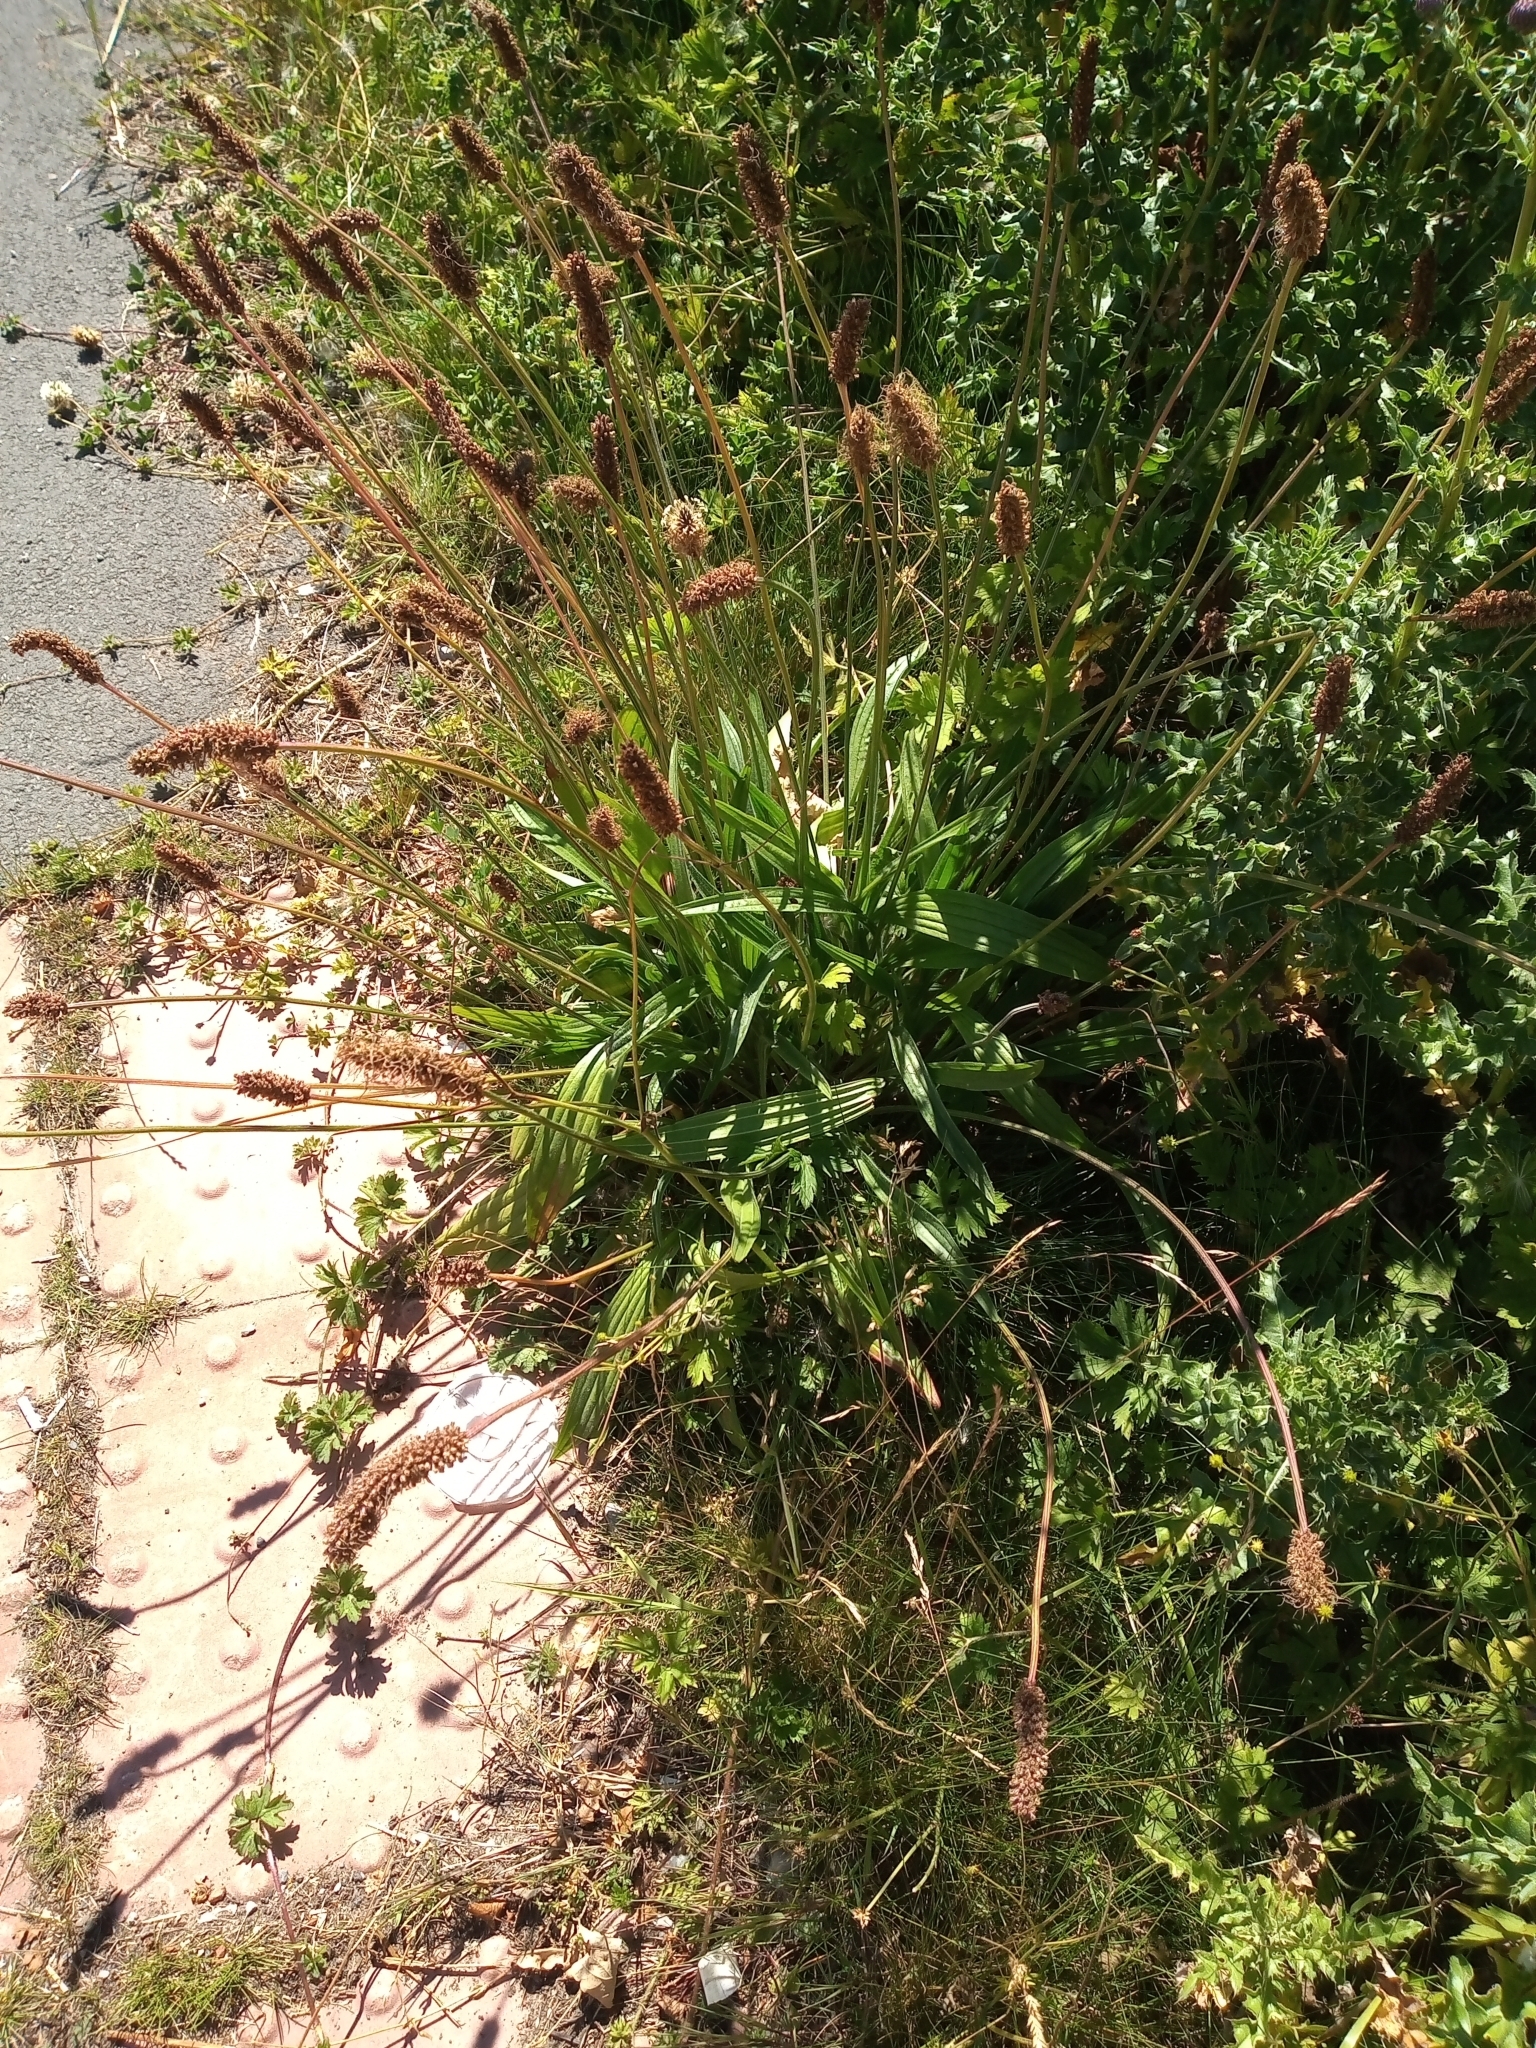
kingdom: Plantae
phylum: Tracheophyta
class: Magnoliopsida
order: Lamiales
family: Plantaginaceae
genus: Plantago
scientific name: Plantago lanceolata
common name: Ribwort plantain
